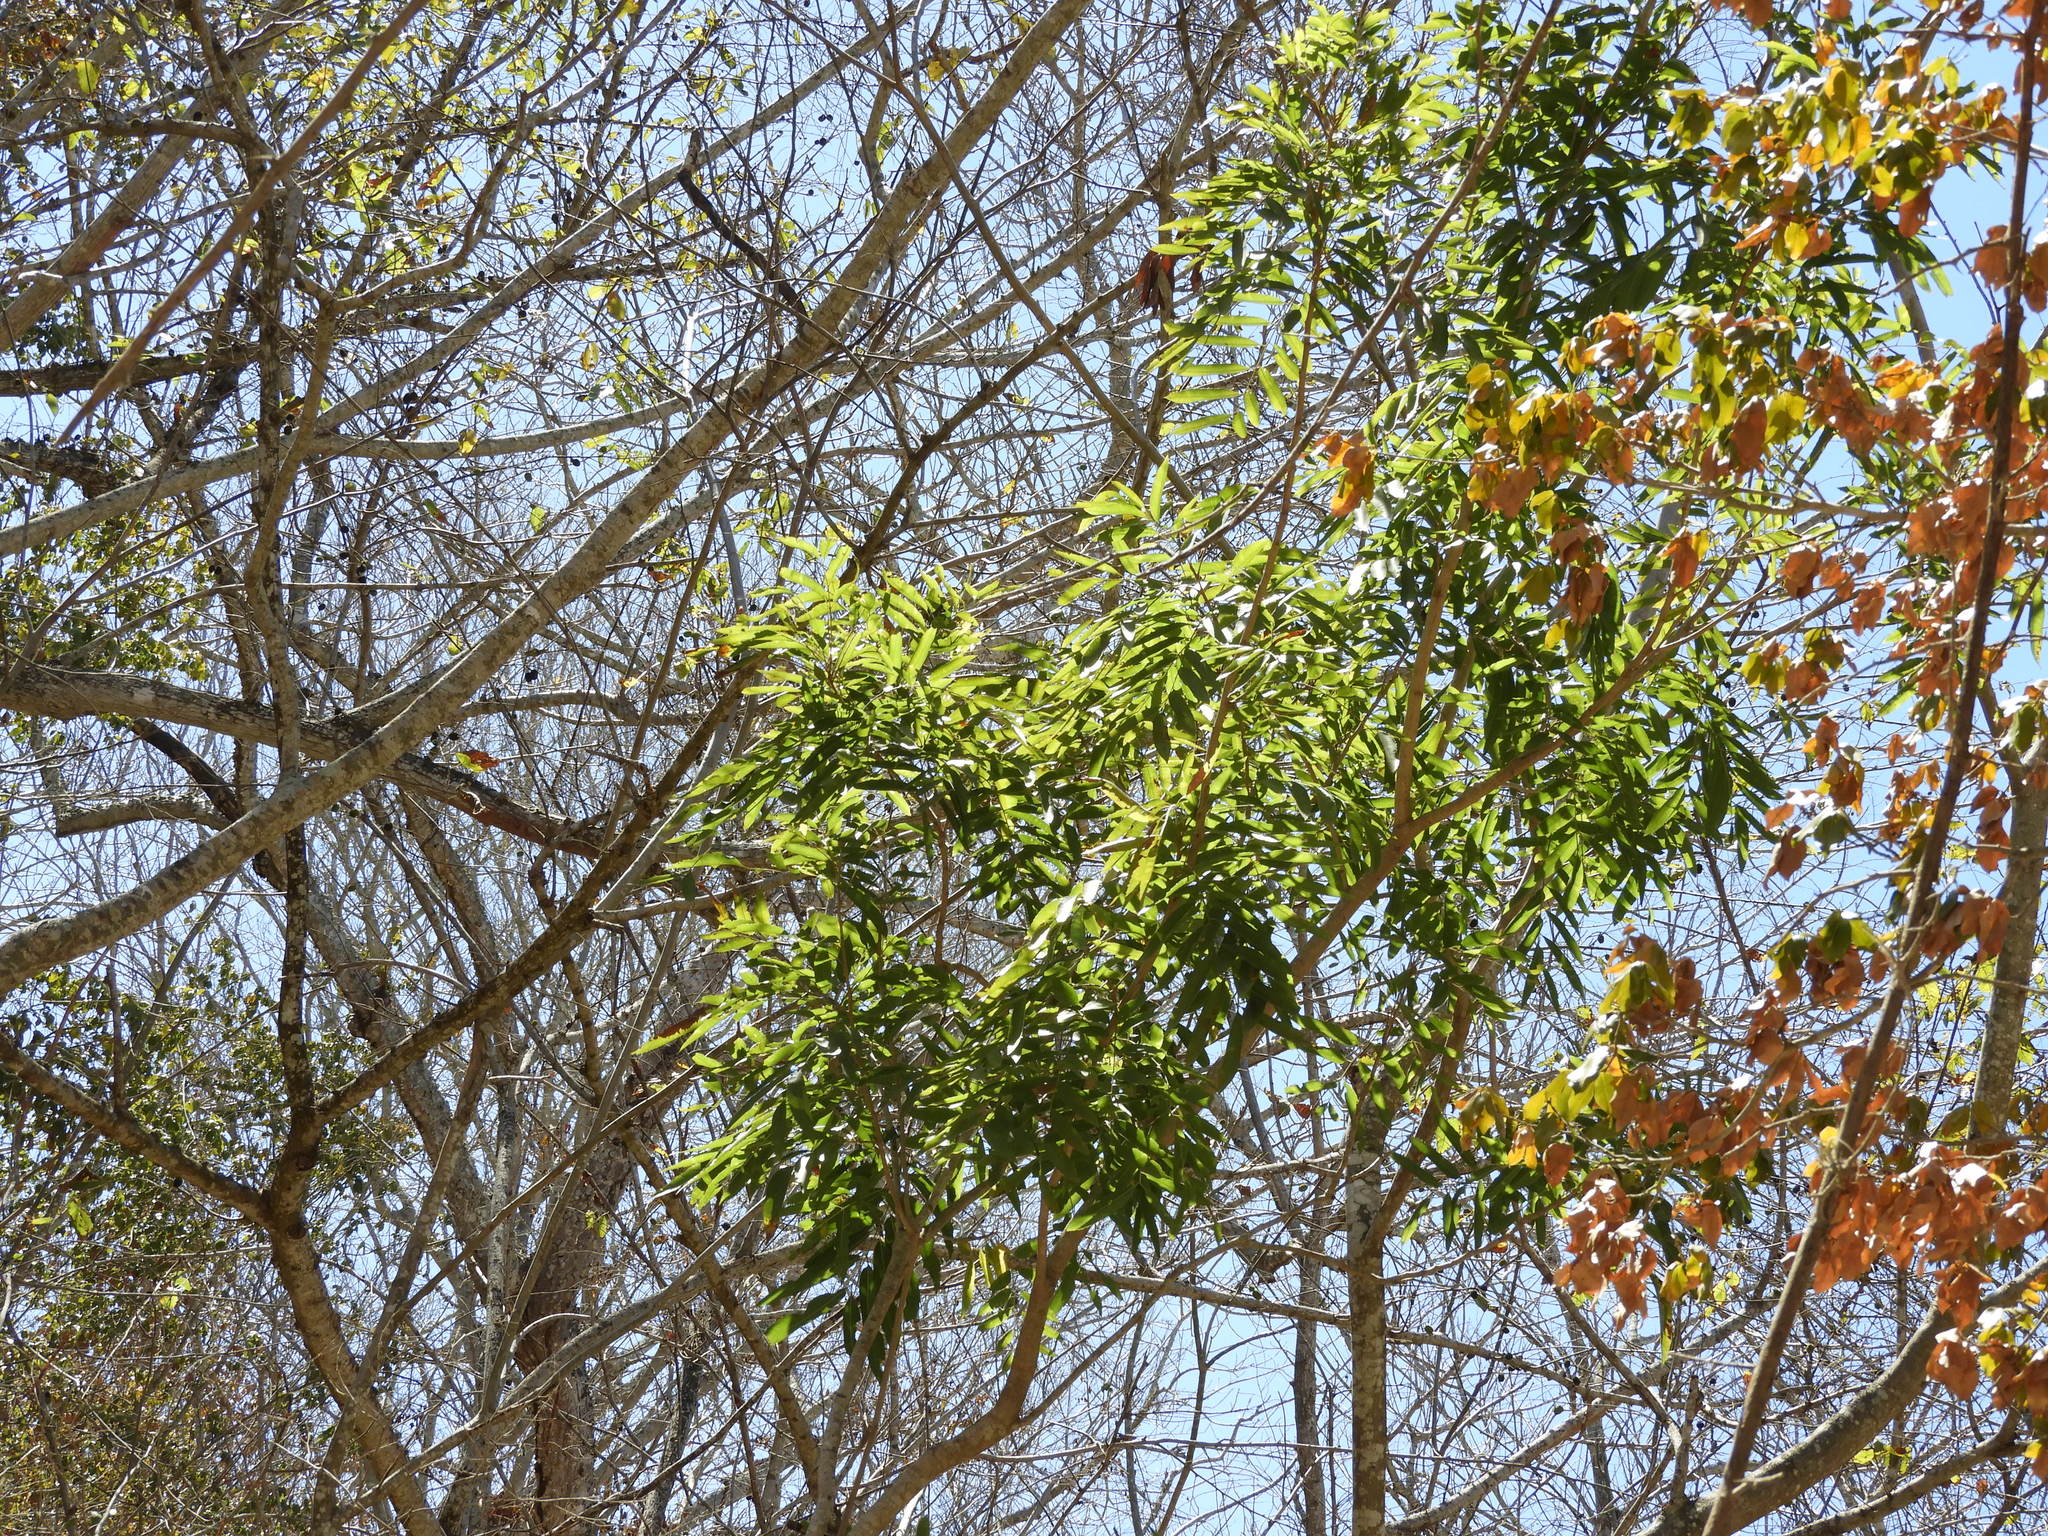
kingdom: Plantae
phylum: Tracheophyta
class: Magnoliopsida
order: Sapindales
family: Sapindaceae
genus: Thouinidium
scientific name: Thouinidium decandrum
